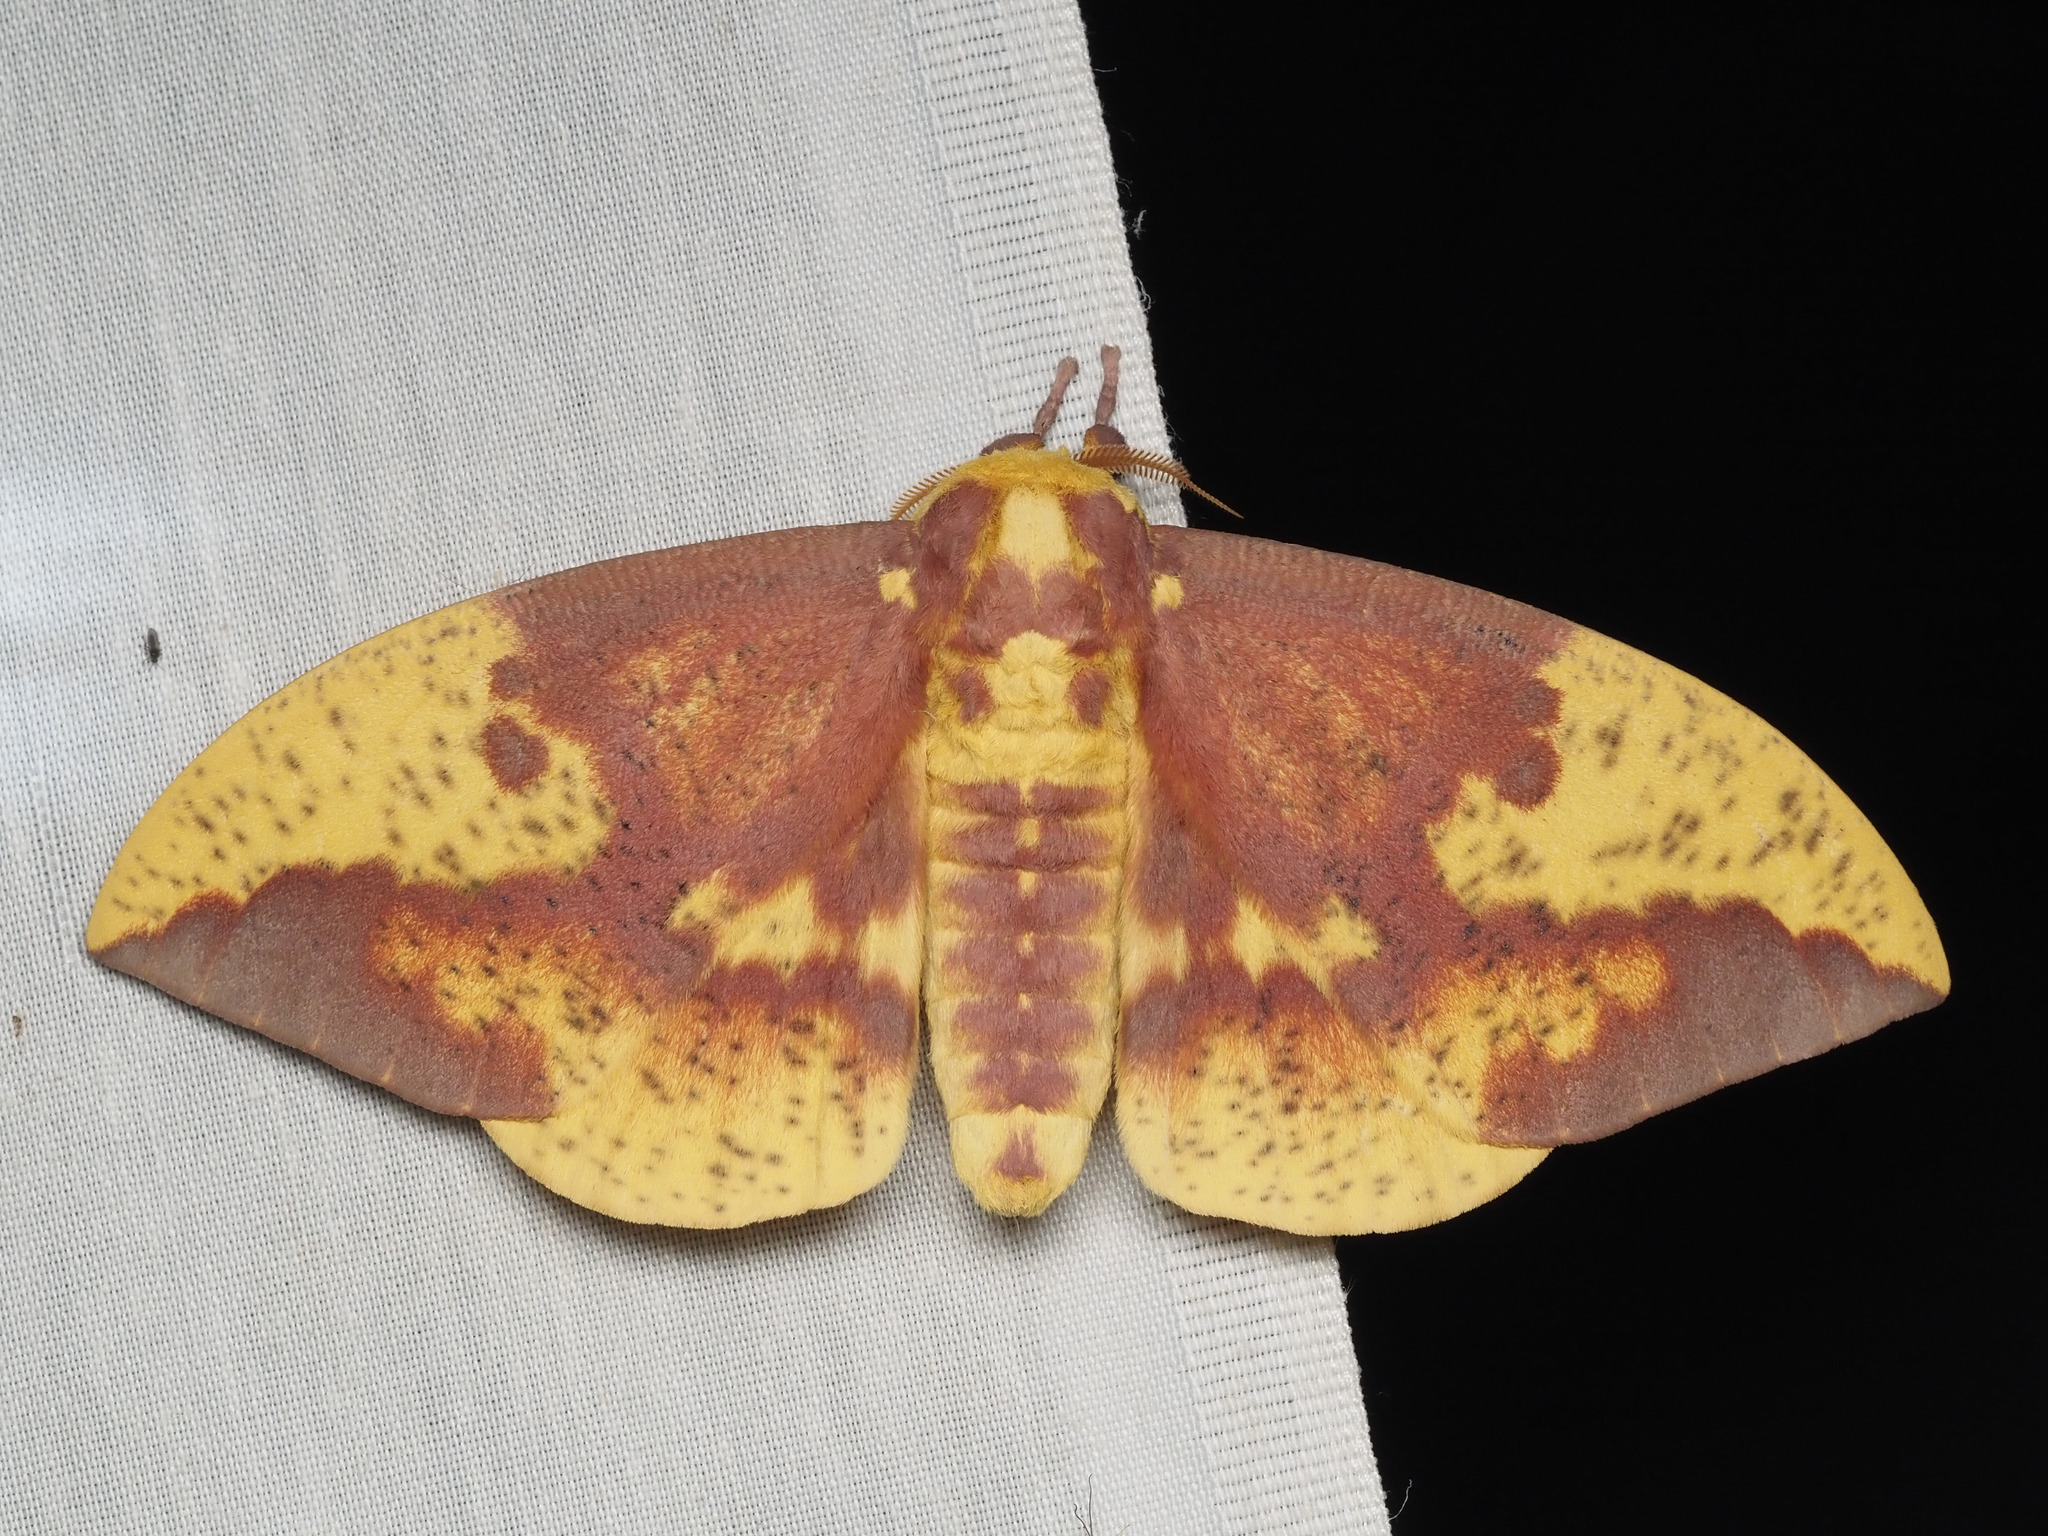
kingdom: Animalia
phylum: Arthropoda
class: Insecta
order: Lepidoptera
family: Saturniidae
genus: Eacles
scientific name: Eacles imperialis
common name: Imperial moth
